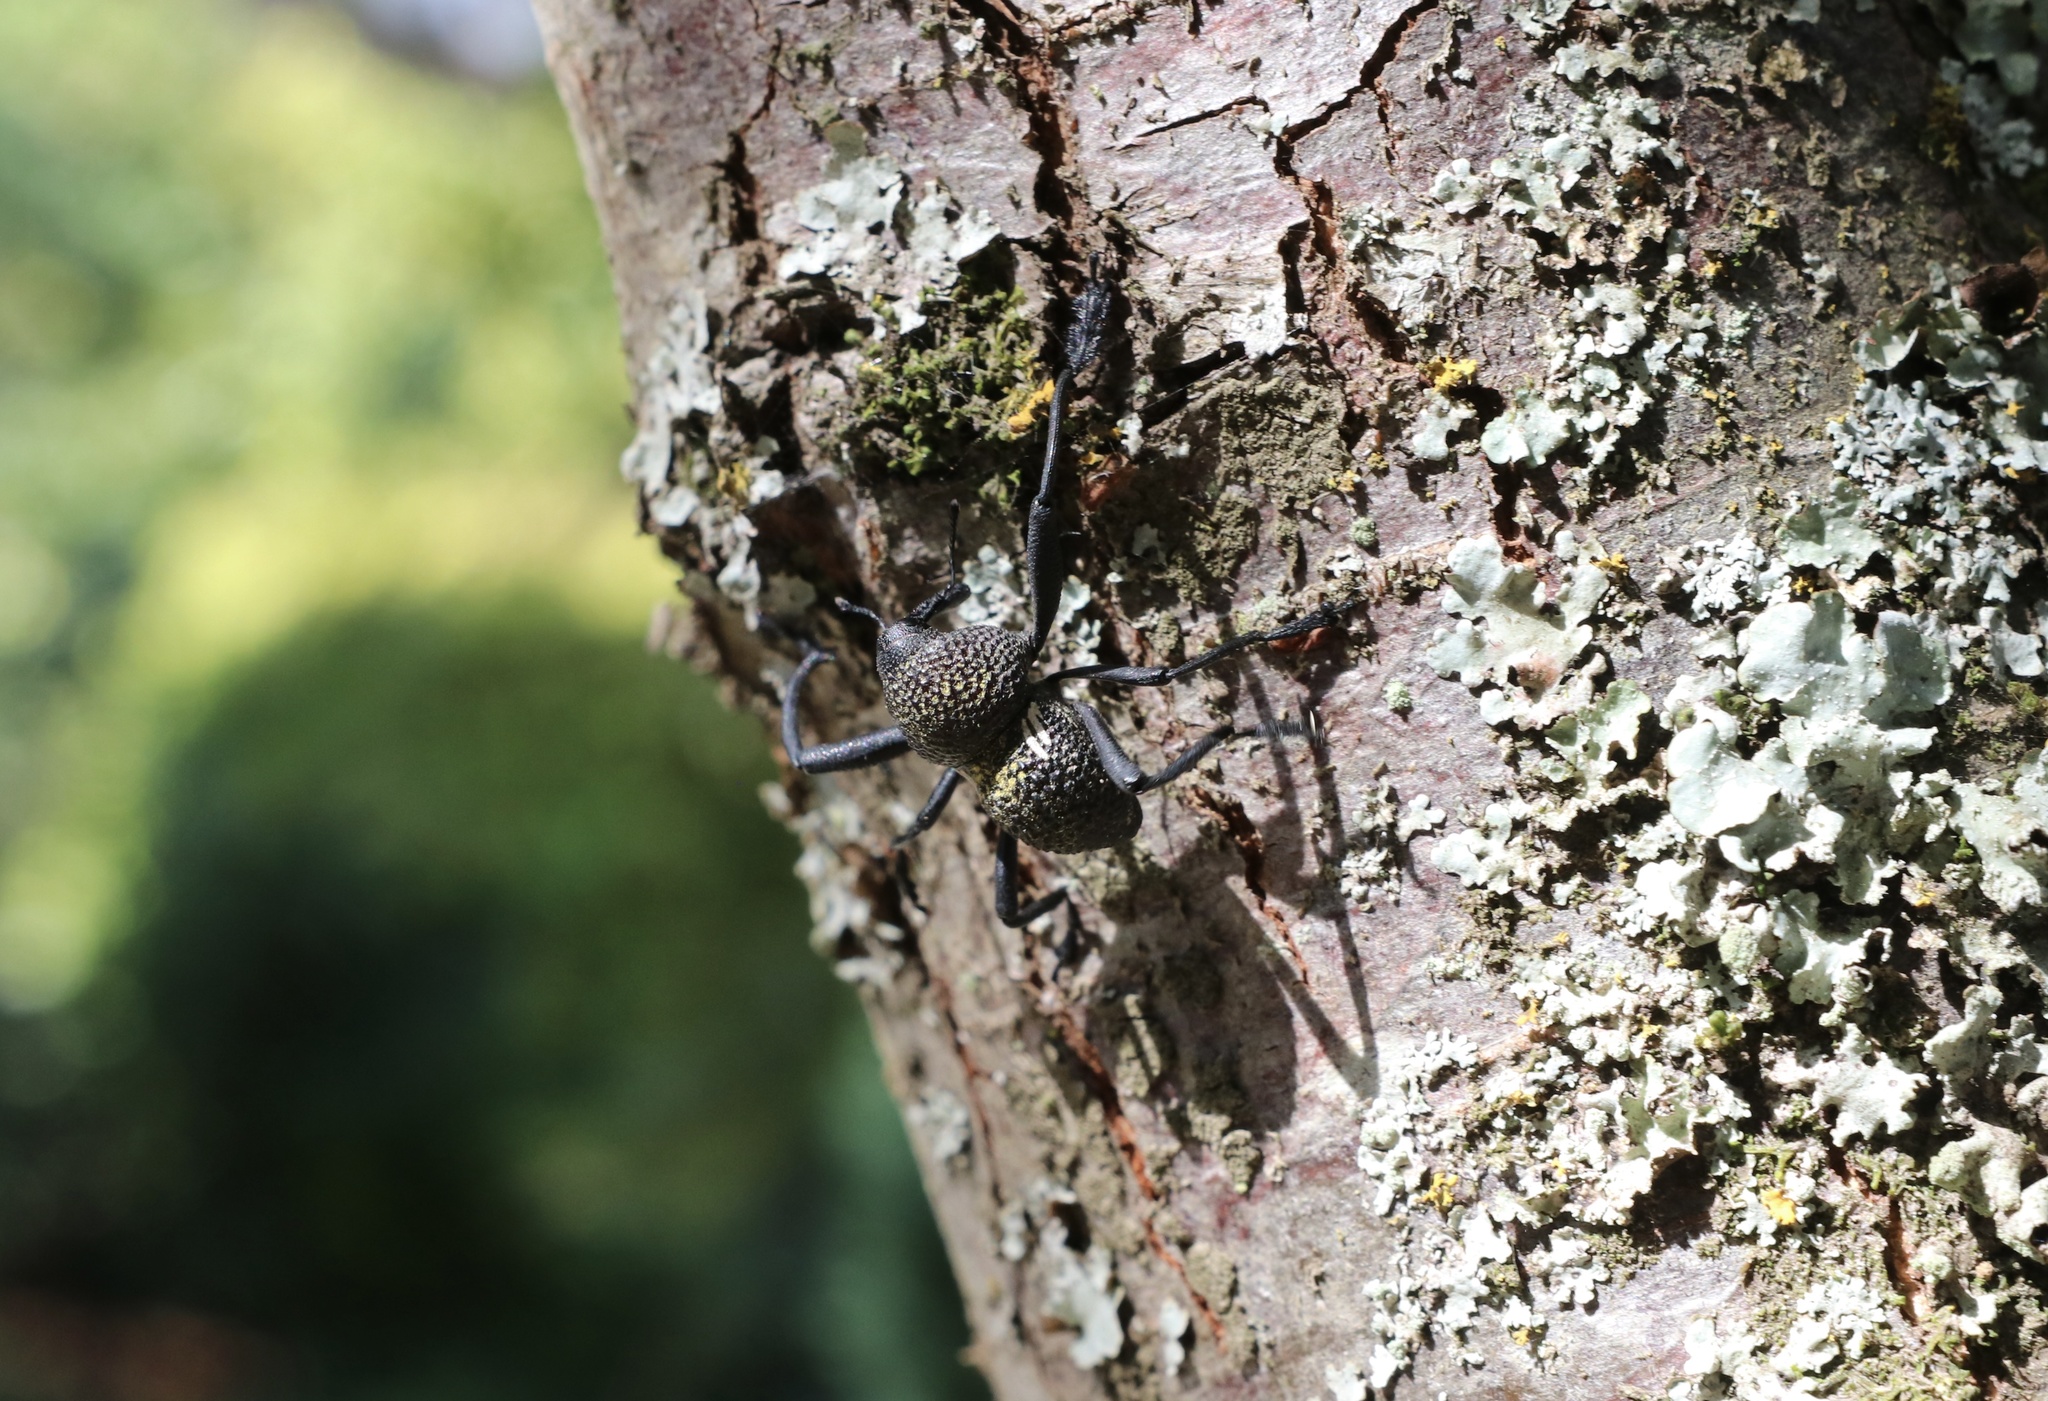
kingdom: Animalia
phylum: Arthropoda
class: Insecta
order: Coleoptera
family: Curculionidae
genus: Rhyephenes
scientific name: Rhyephenes humeralis
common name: Araè±ita chilena del pino
